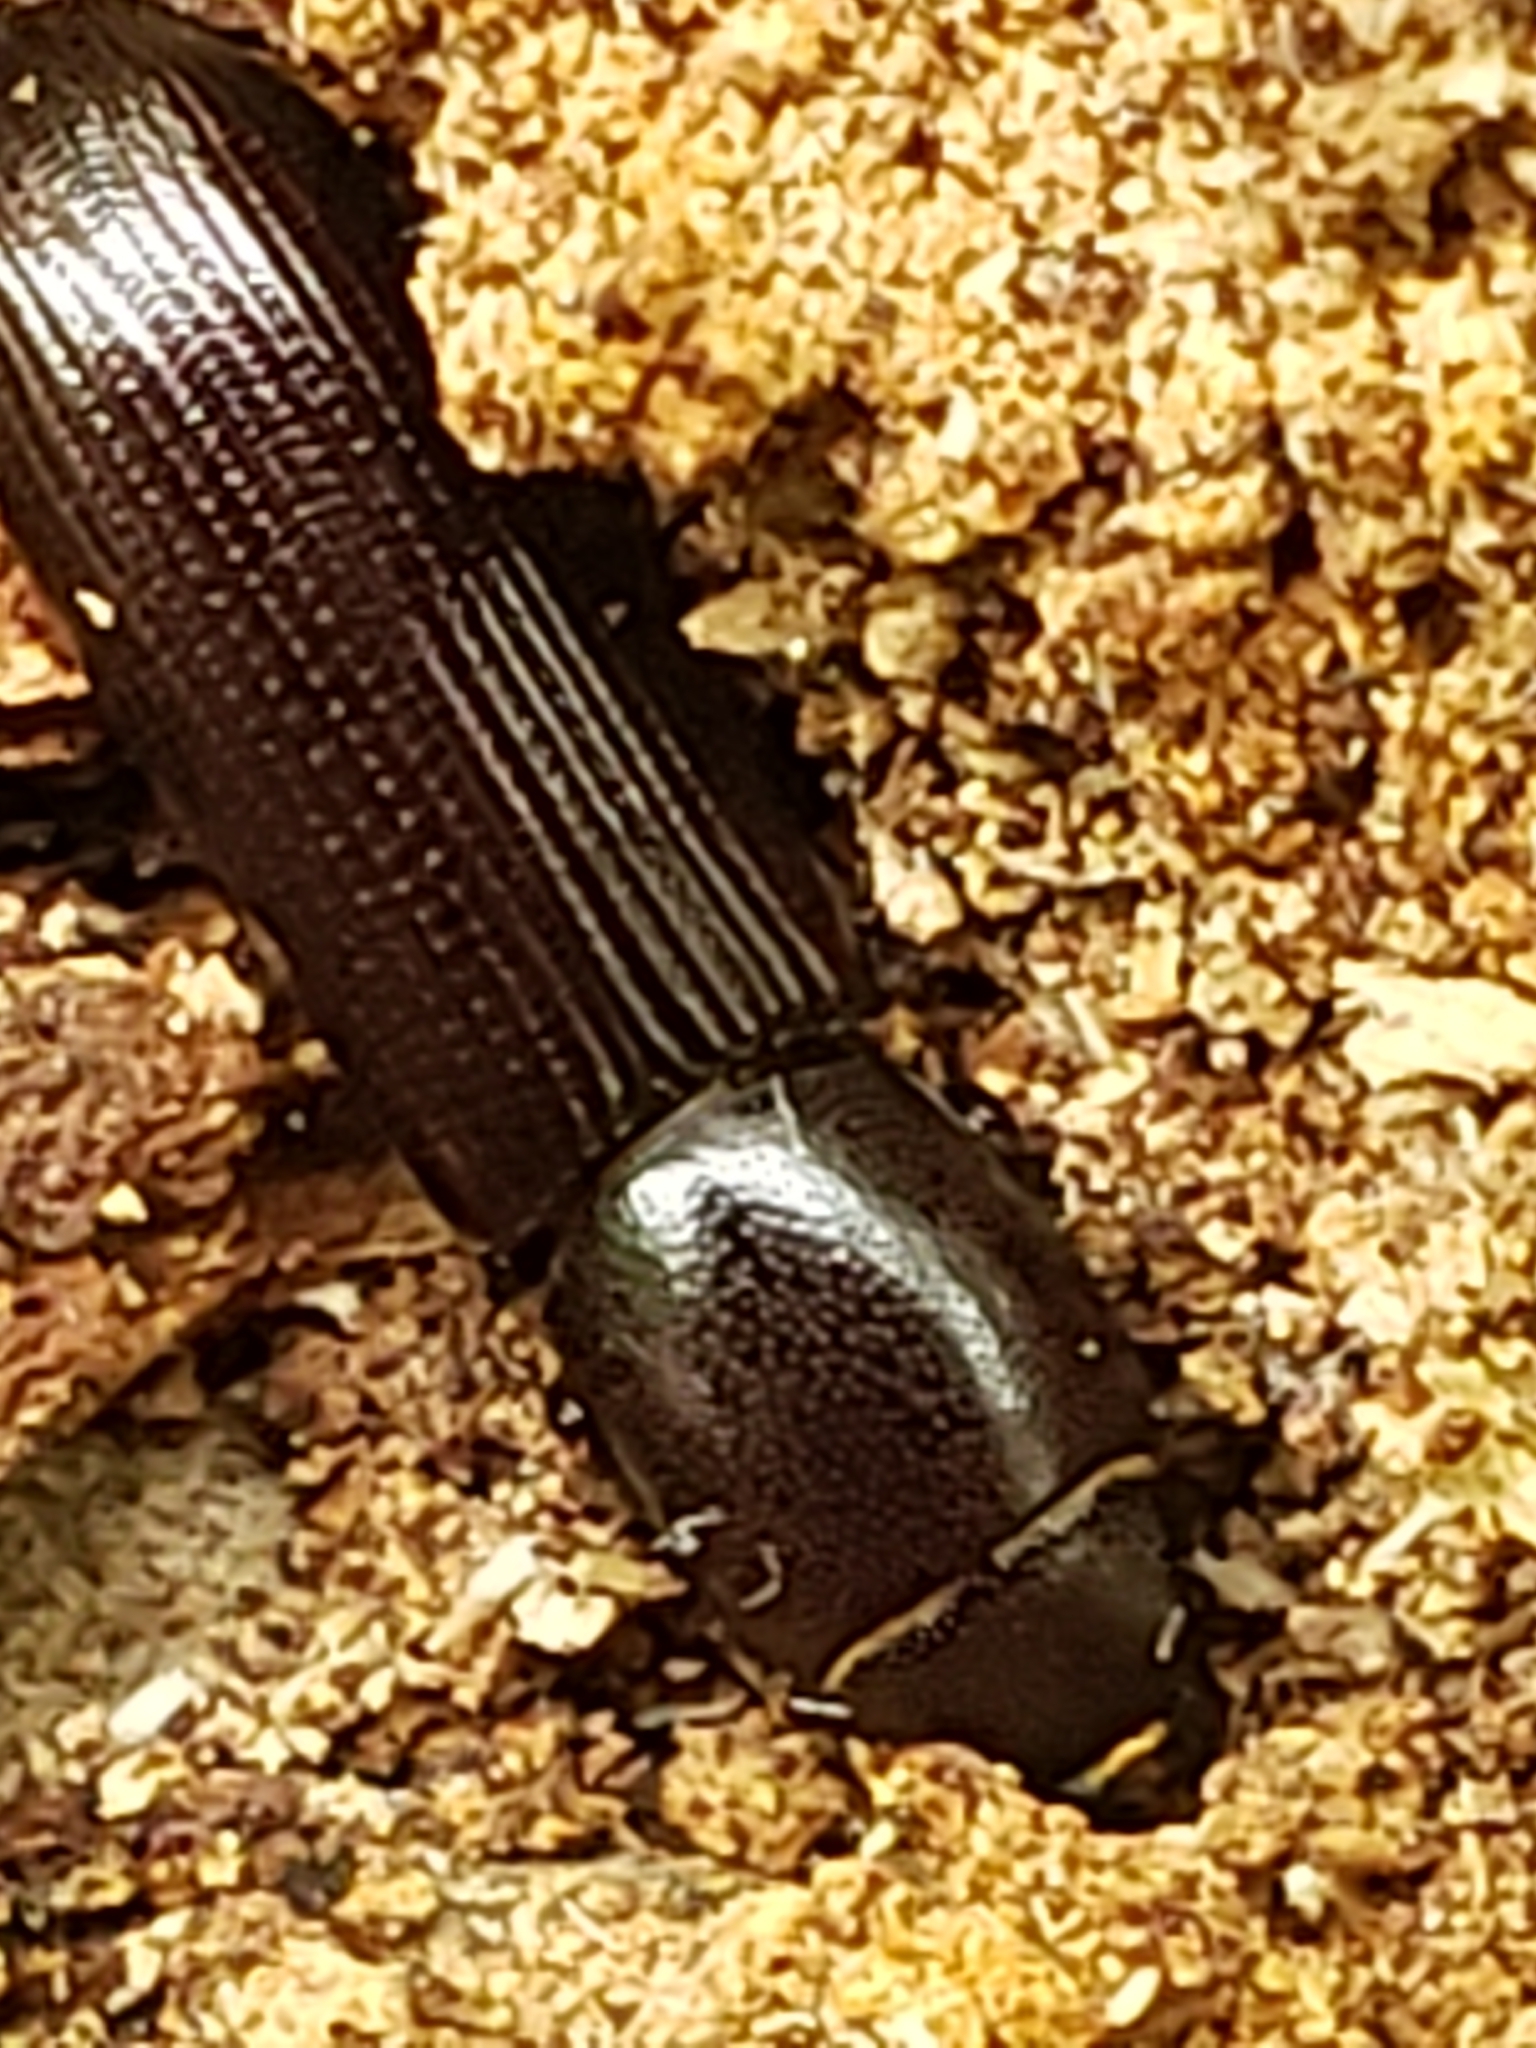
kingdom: Animalia
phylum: Arthropoda
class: Insecta
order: Coleoptera
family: Trogossitidae
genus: Airora
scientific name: Airora cylindrica
